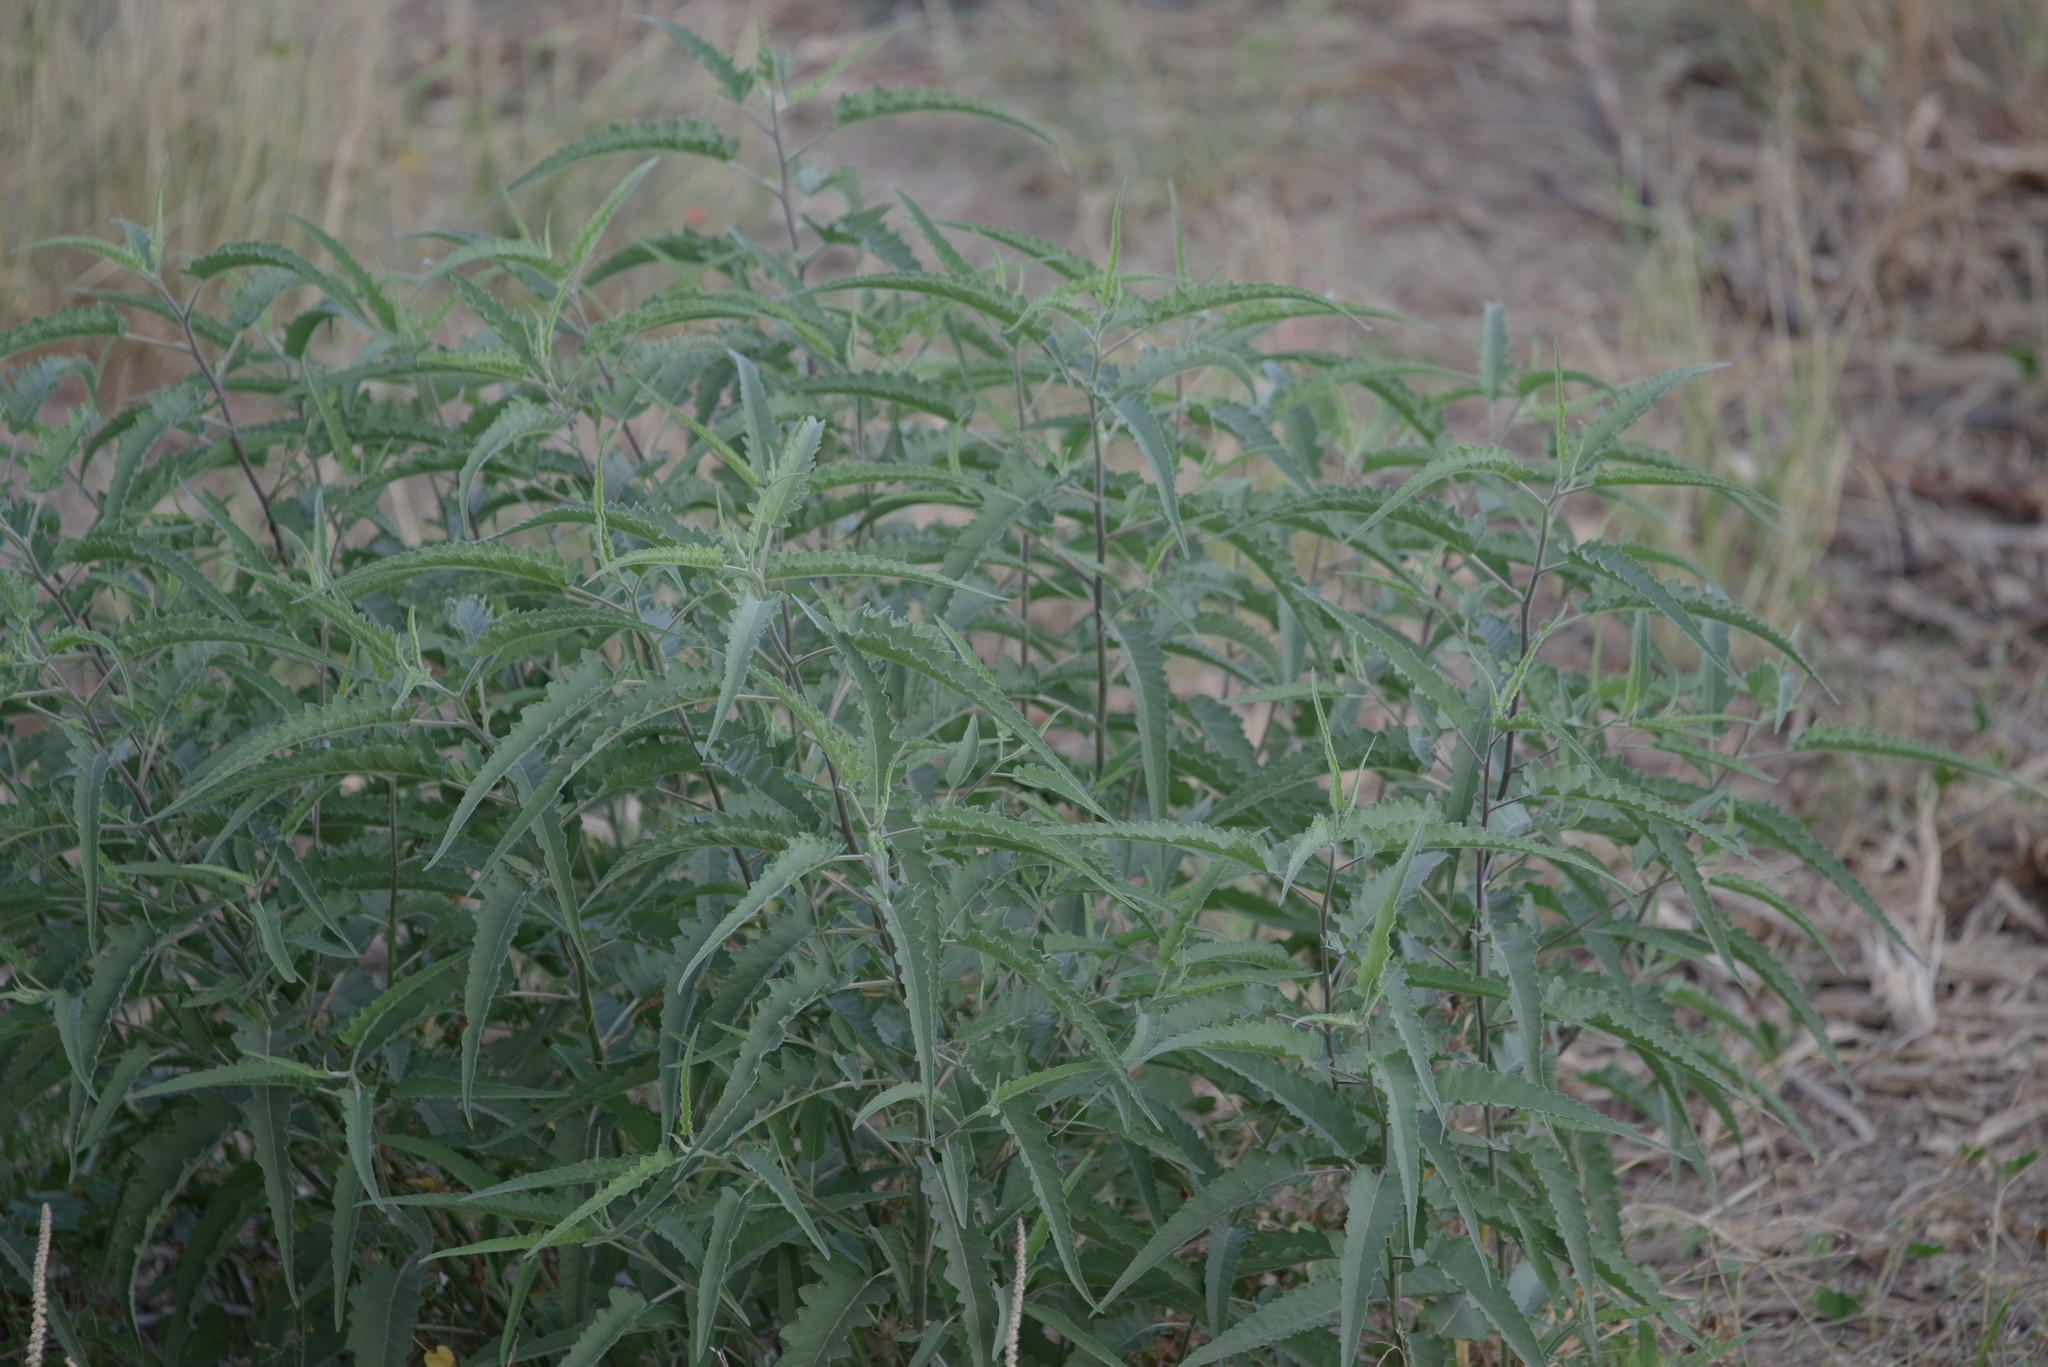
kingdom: Plantae
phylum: Tracheophyta
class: Magnoliopsida
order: Asterales
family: Asteraceae
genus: Ambrosia
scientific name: Ambrosia ambrosioides
